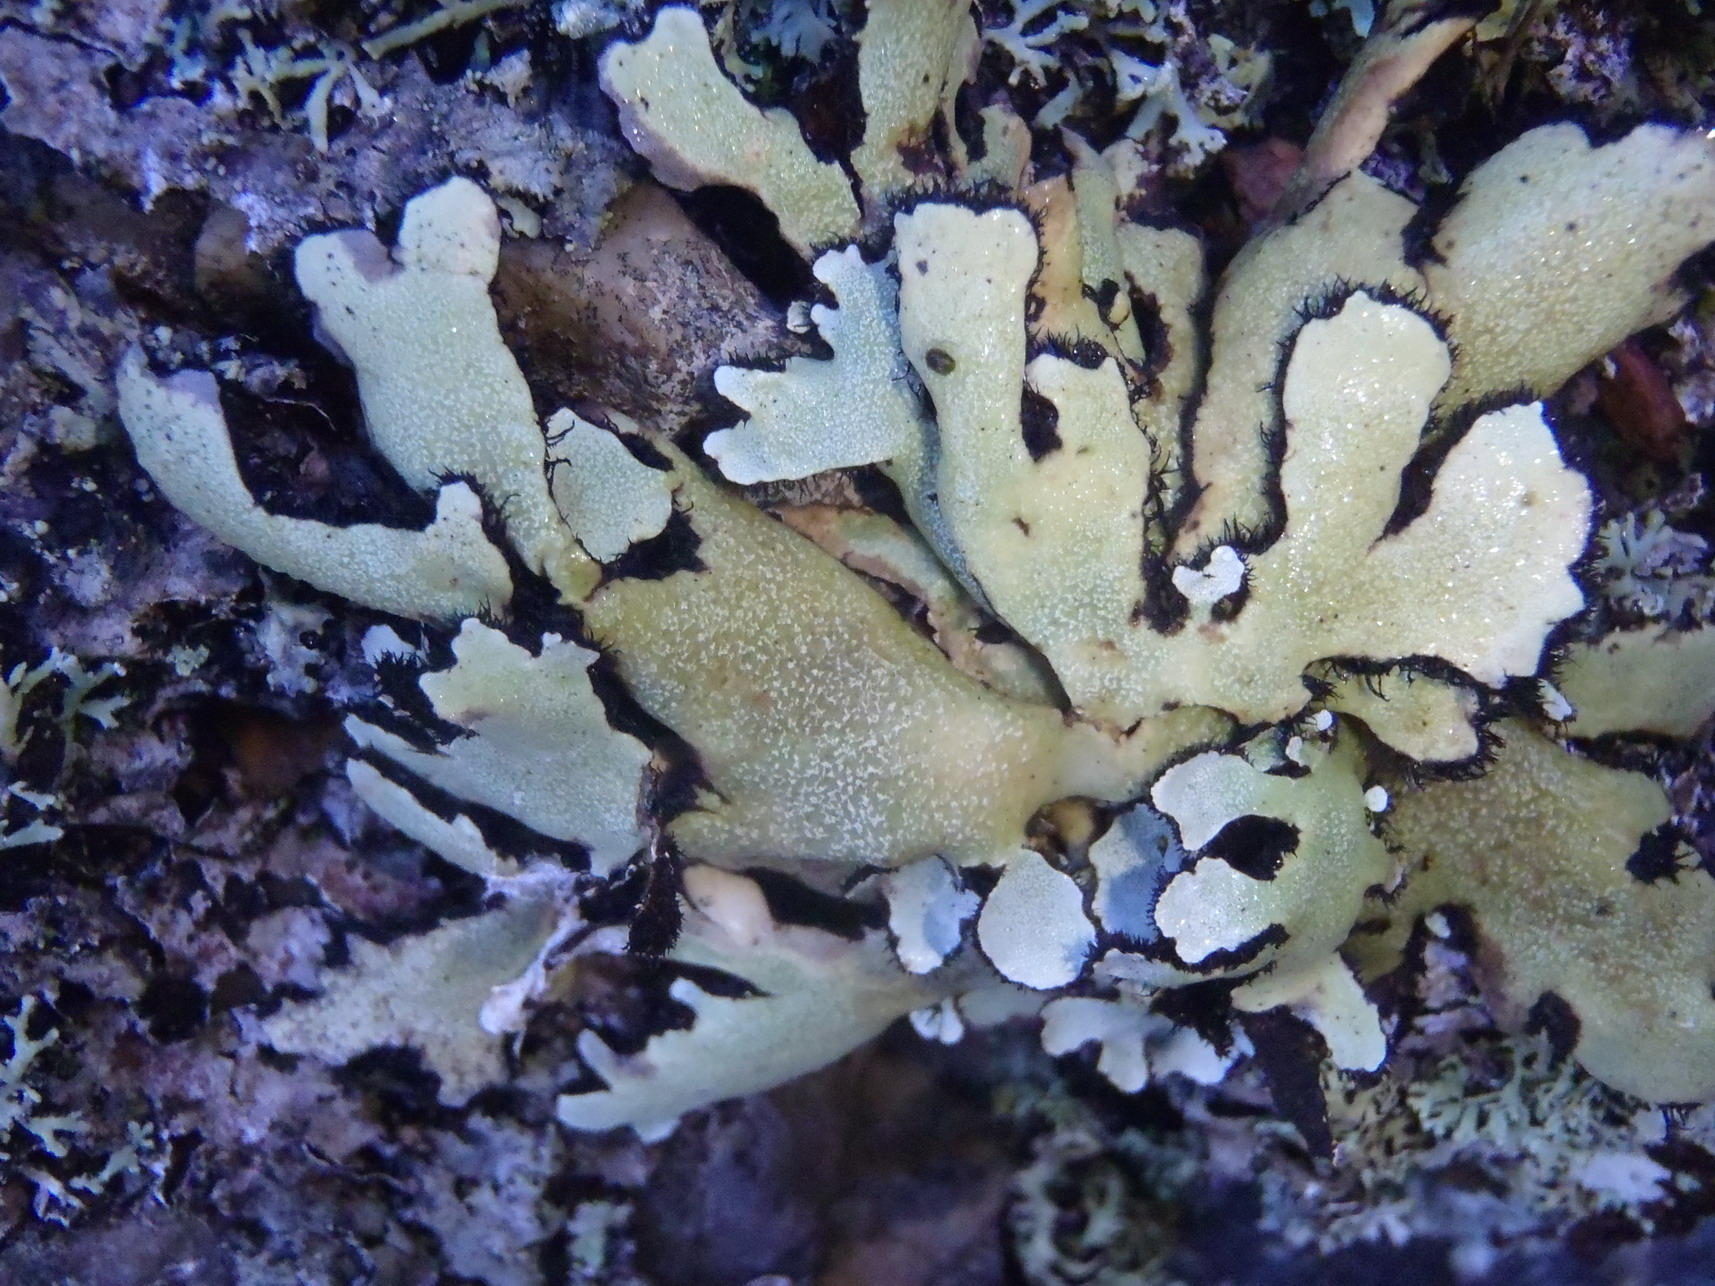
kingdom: Fungi
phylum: Ascomycota
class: Lecanoromycetes
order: Lecanorales
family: Parmeliaceae
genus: Xanthoparmelia
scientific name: Xanthoparmelia hottentotta
